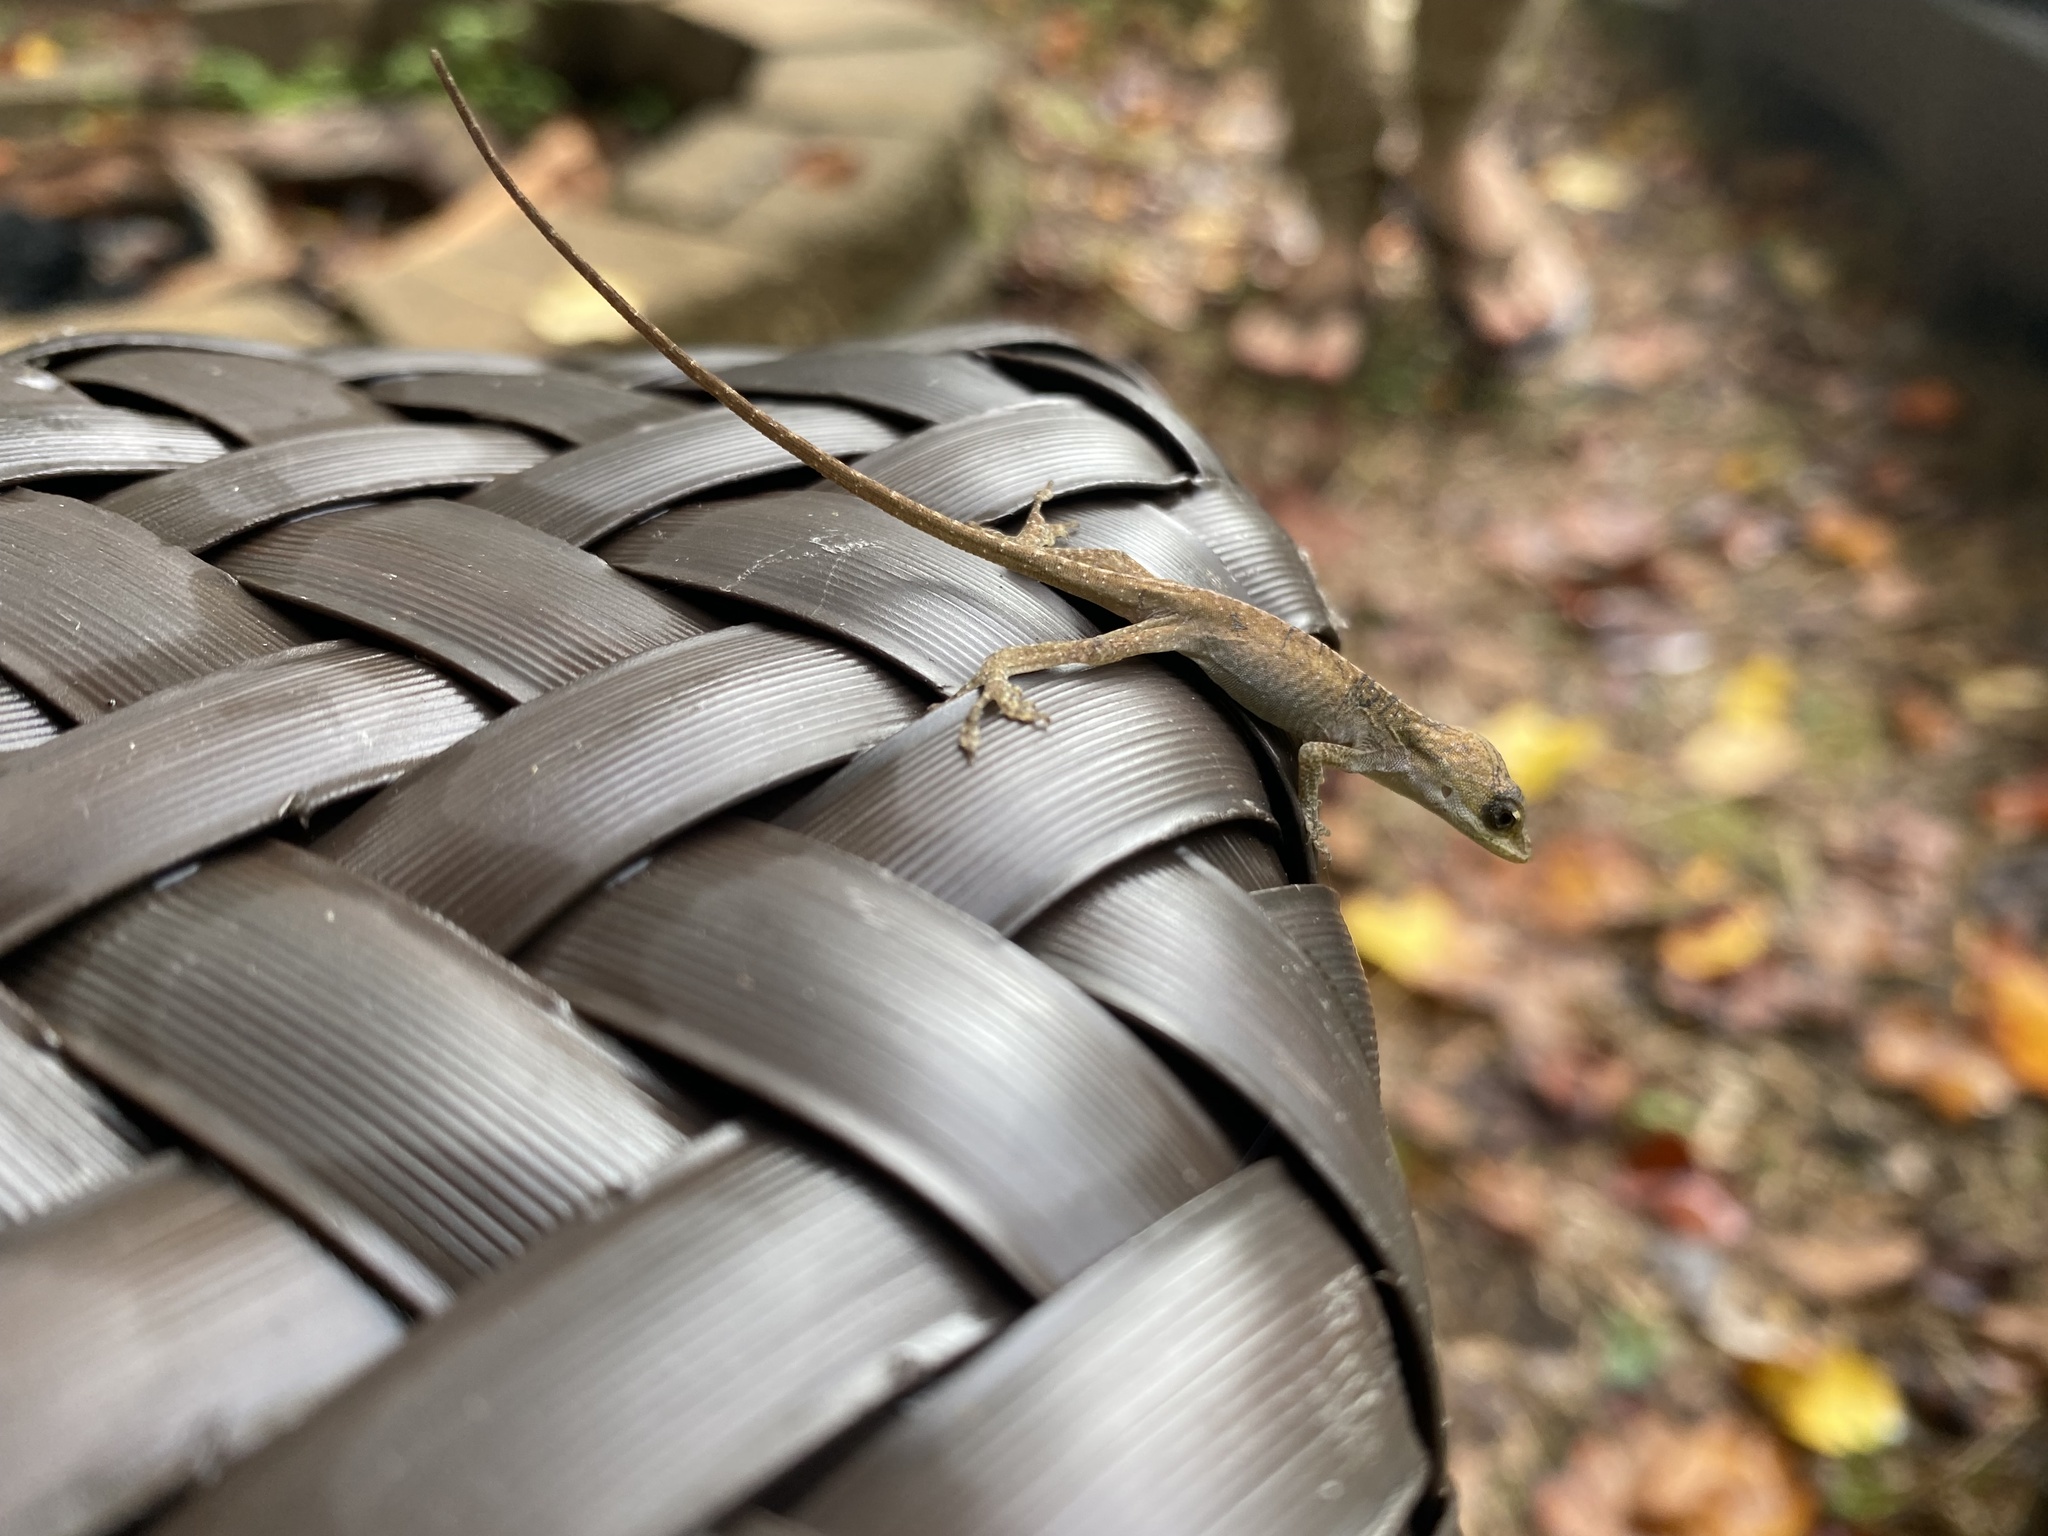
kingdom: Animalia
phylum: Chordata
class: Squamata
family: Dactyloidae
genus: Anolis
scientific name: Anolis carolinensis
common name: Green anole
